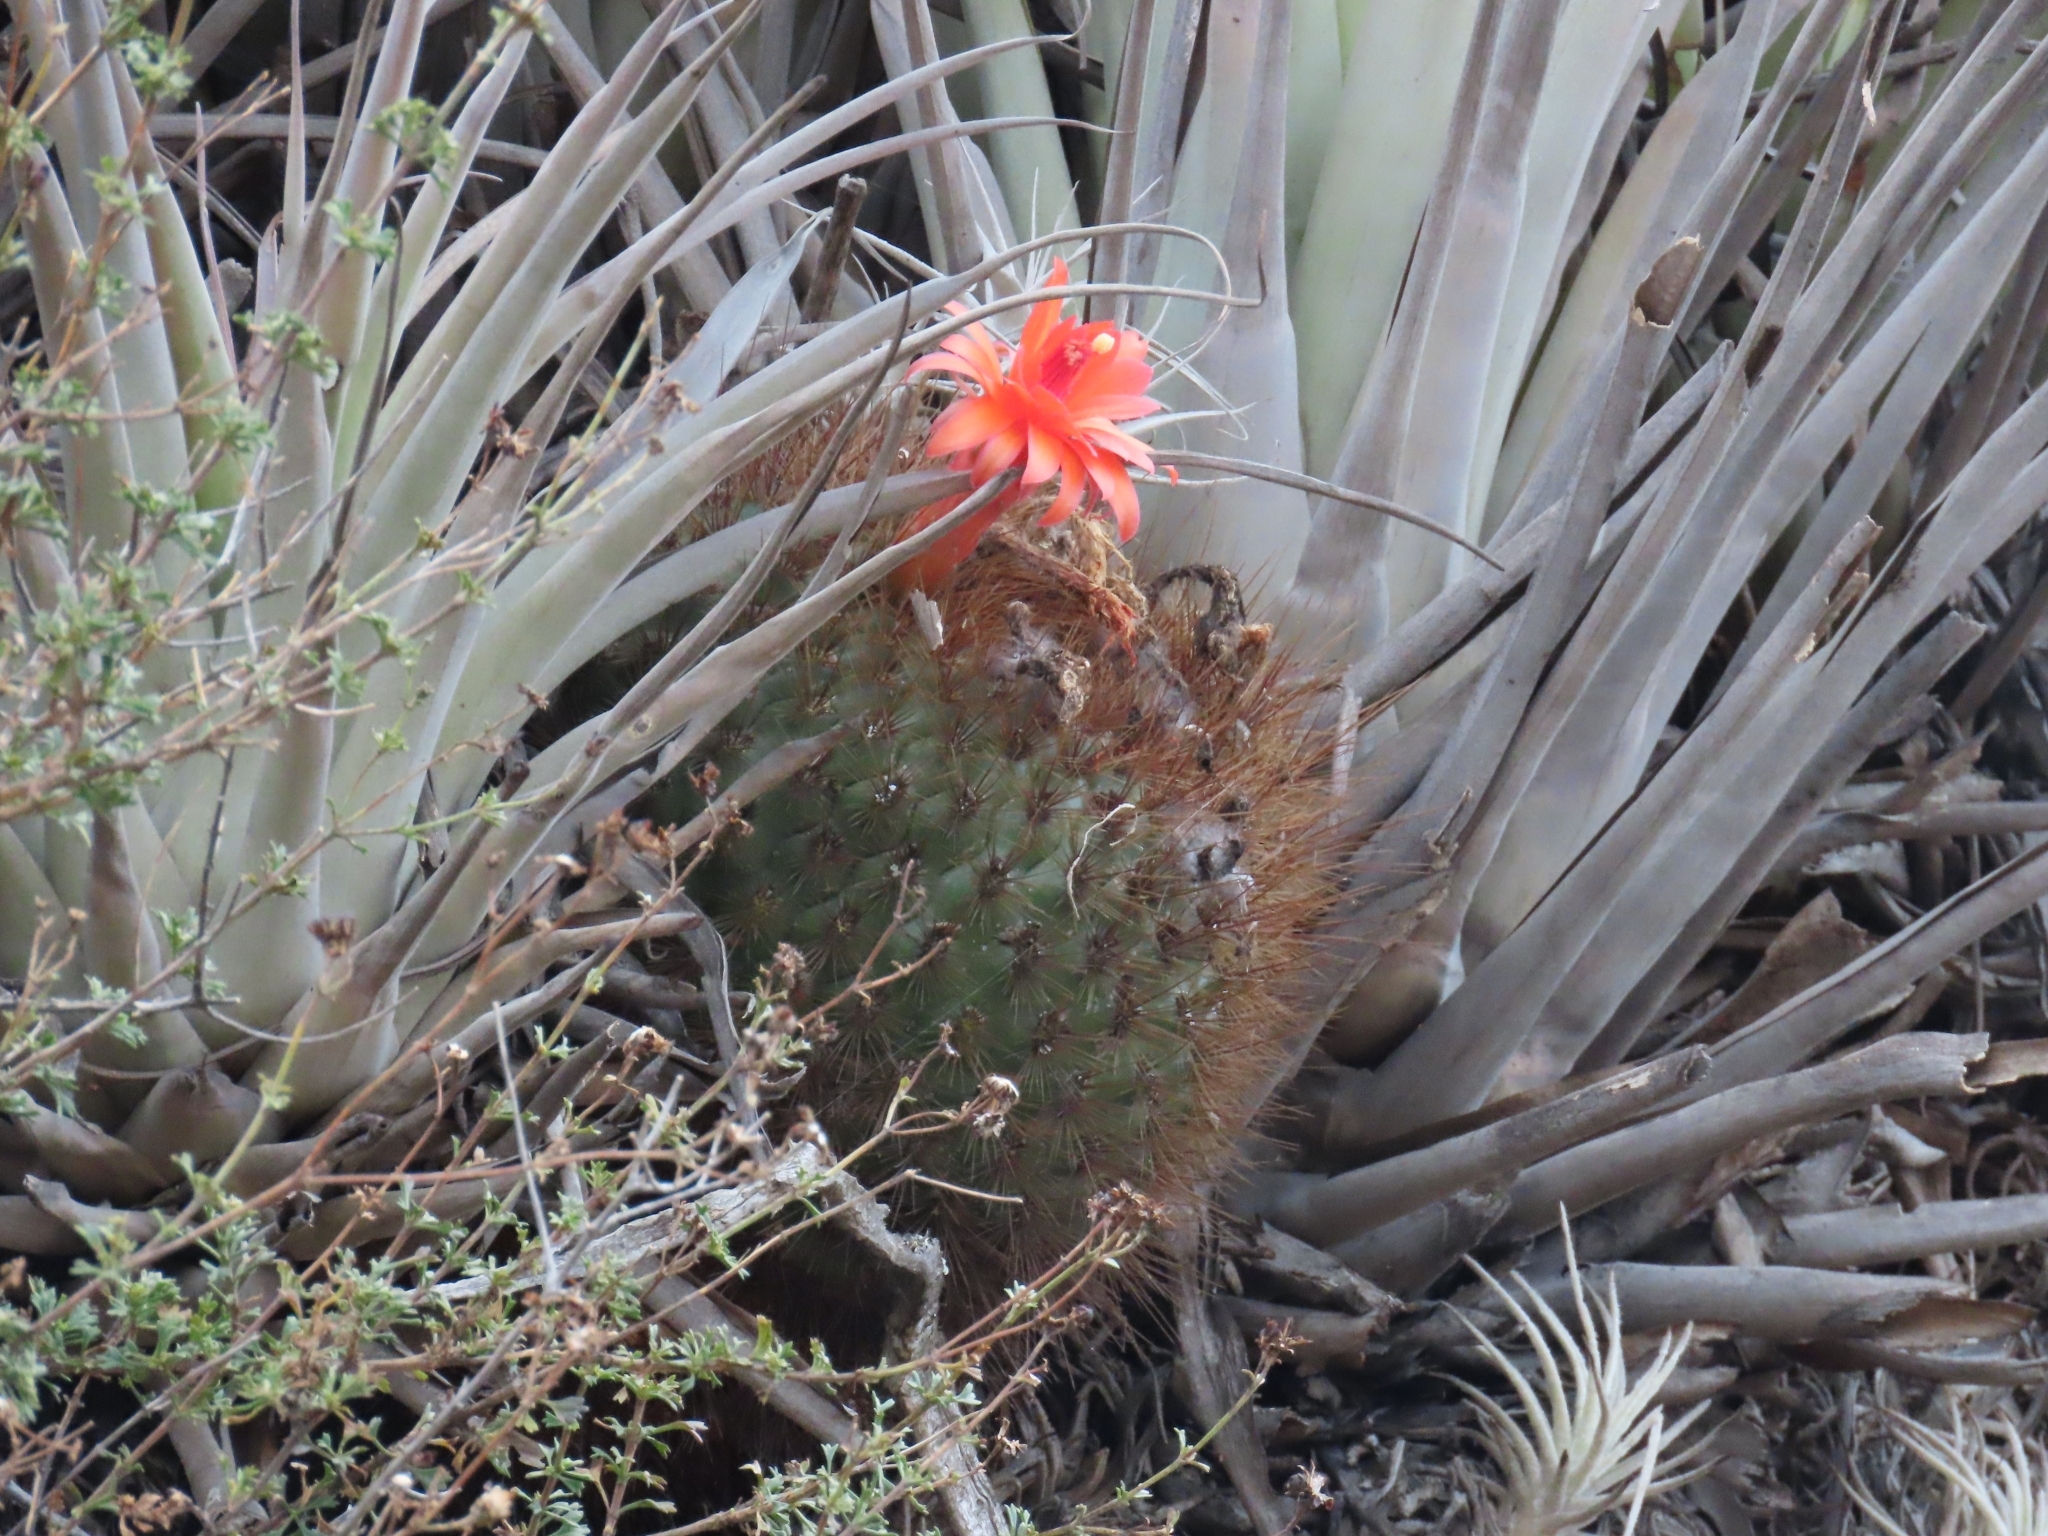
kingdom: Plantae
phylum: Tracheophyta
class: Magnoliopsida
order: Caryophyllales
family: Cactaceae
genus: Matucana
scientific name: Matucana aurantiaca
